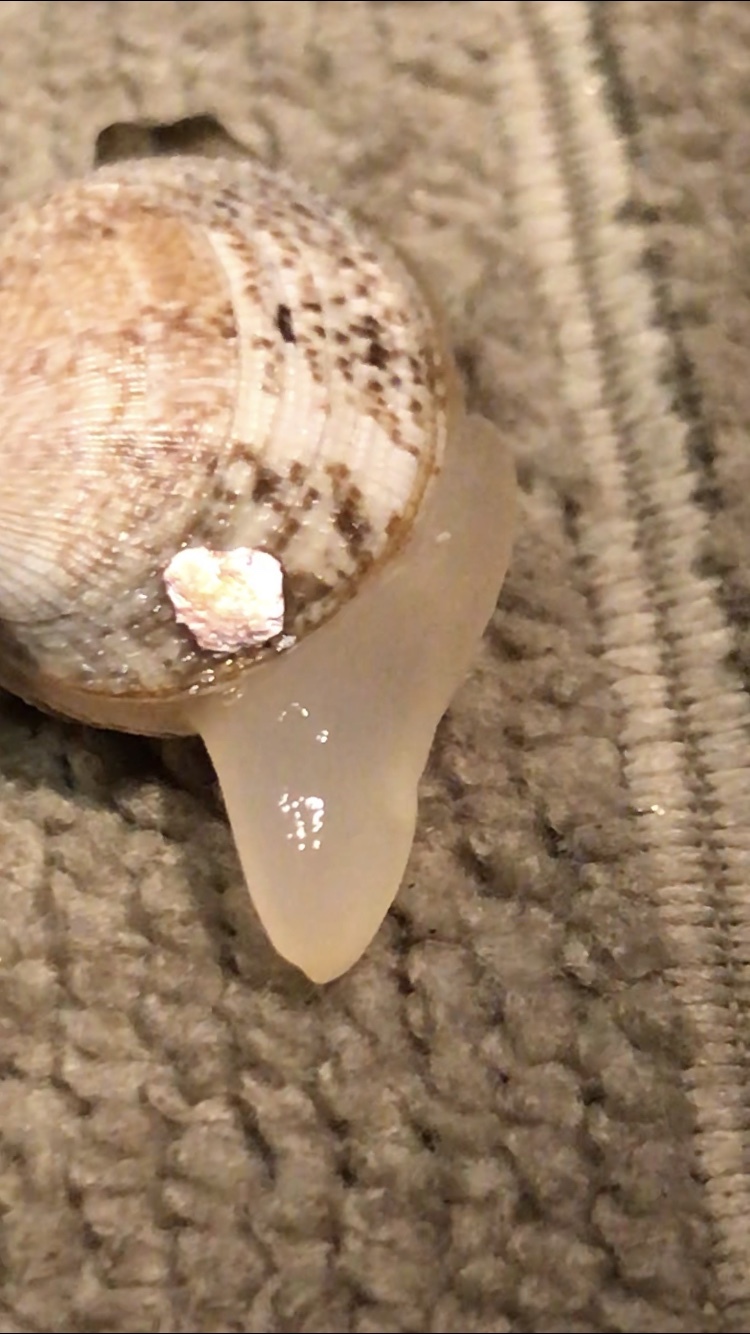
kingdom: Animalia
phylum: Mollusca
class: Bivalvia
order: Venerida
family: Veneridae
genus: Ruditapes
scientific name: Ruditapes philippinarum
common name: Manila clam
